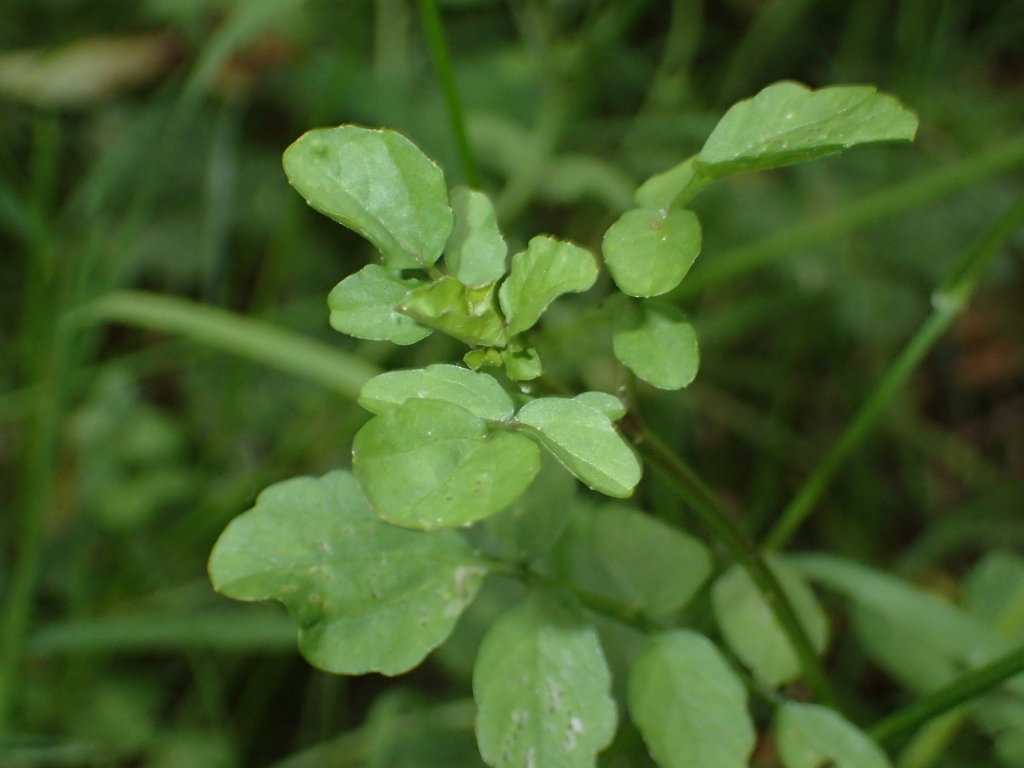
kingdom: Plantae
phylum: Tracheophyta
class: Magnoliopsida
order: Brassicales
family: Brassicaceae
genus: Nasturtium
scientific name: Nasturtium officinale
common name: Watercress
